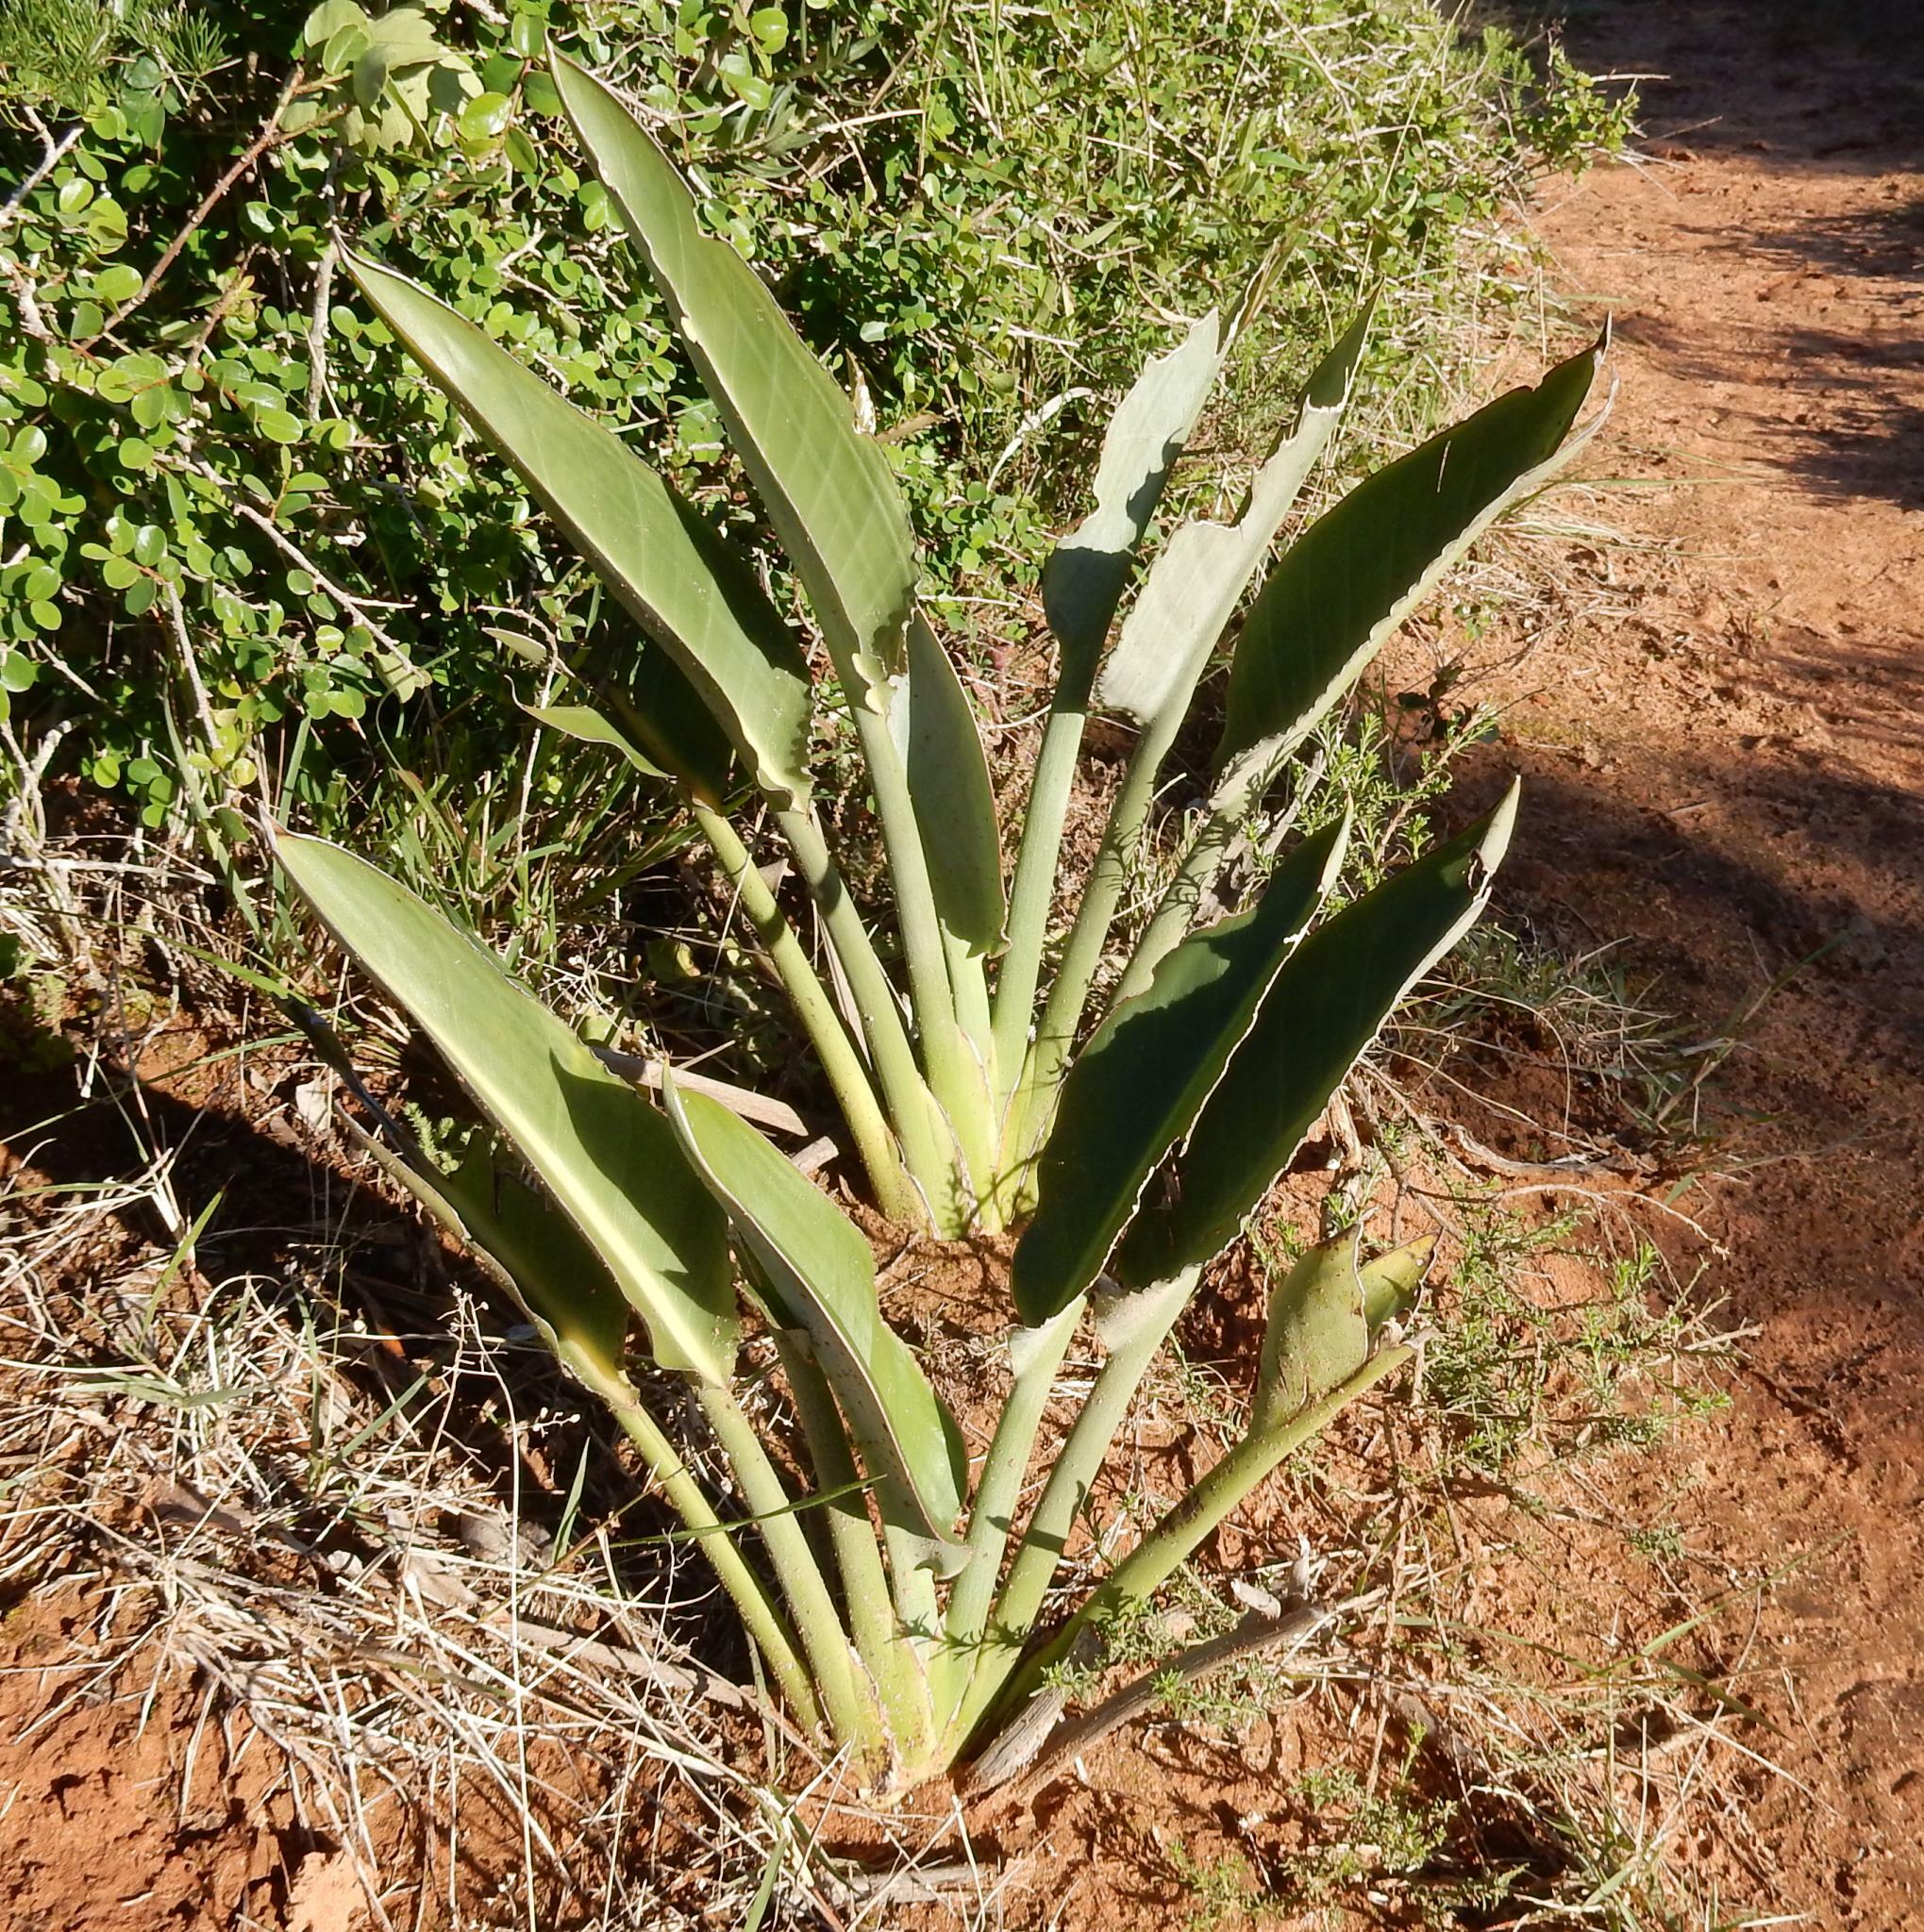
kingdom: Plantae
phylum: Tracheophyta
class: Liliopsida
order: Zingiberales
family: Strelitziaceae
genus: Strelitzia
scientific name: Strelitzia reginae
